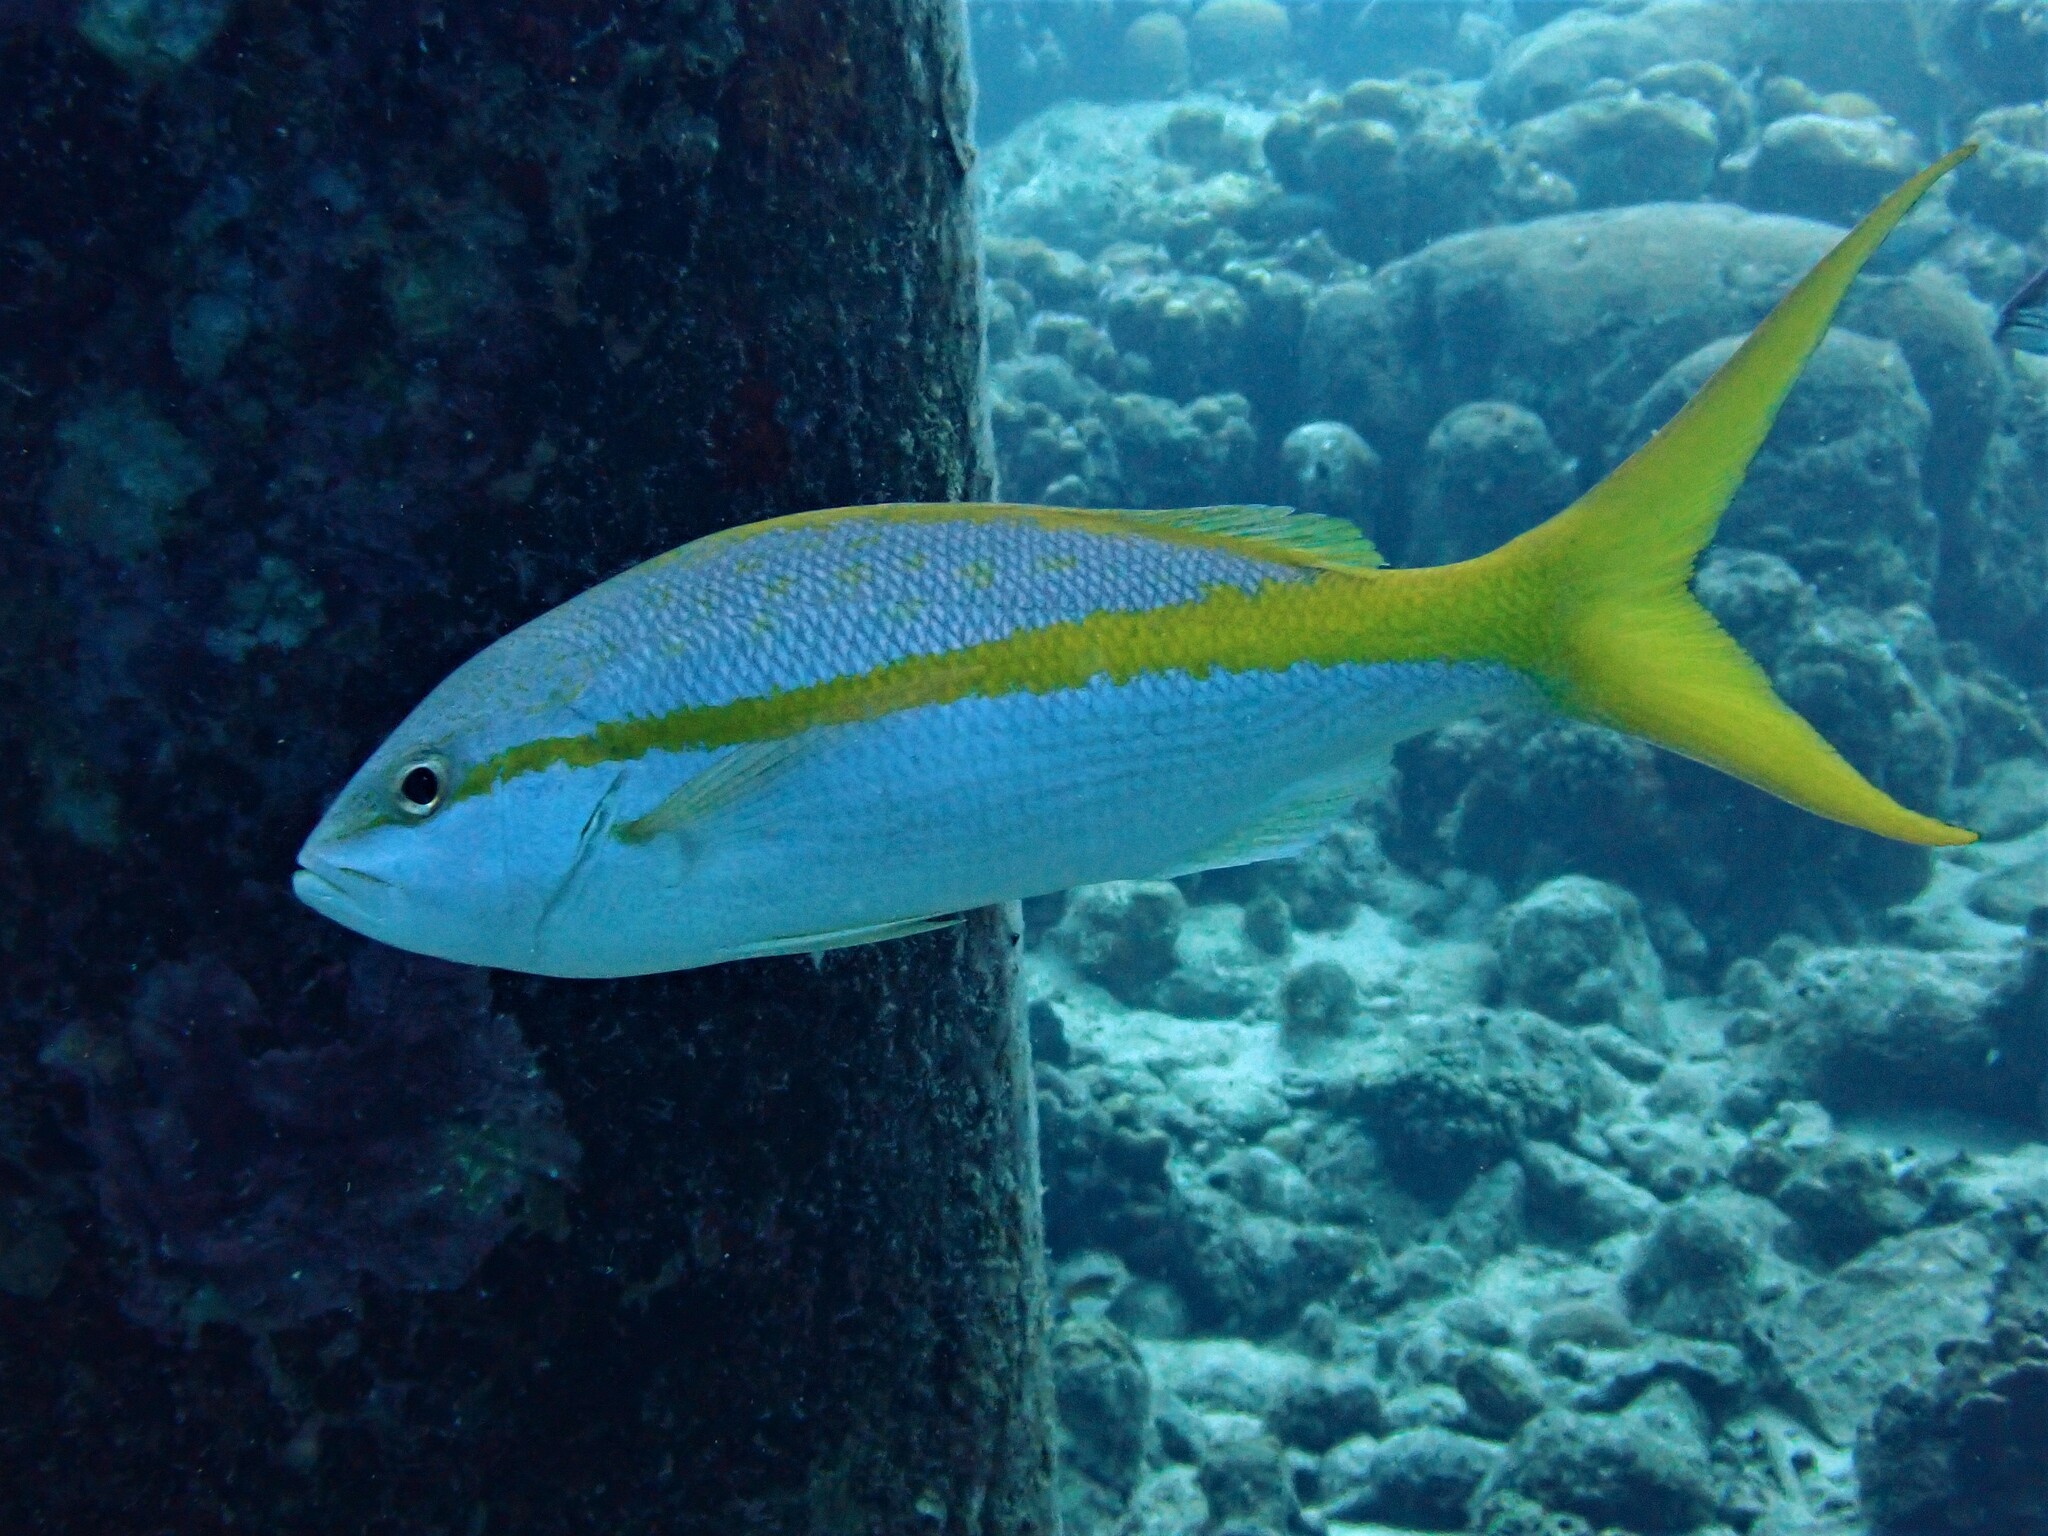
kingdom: Animalia
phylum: Chordata
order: Perciformes
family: Lutjanidae
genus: Ocyurus
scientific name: Ocyurus chrysurus
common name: Yellowtail snapper
